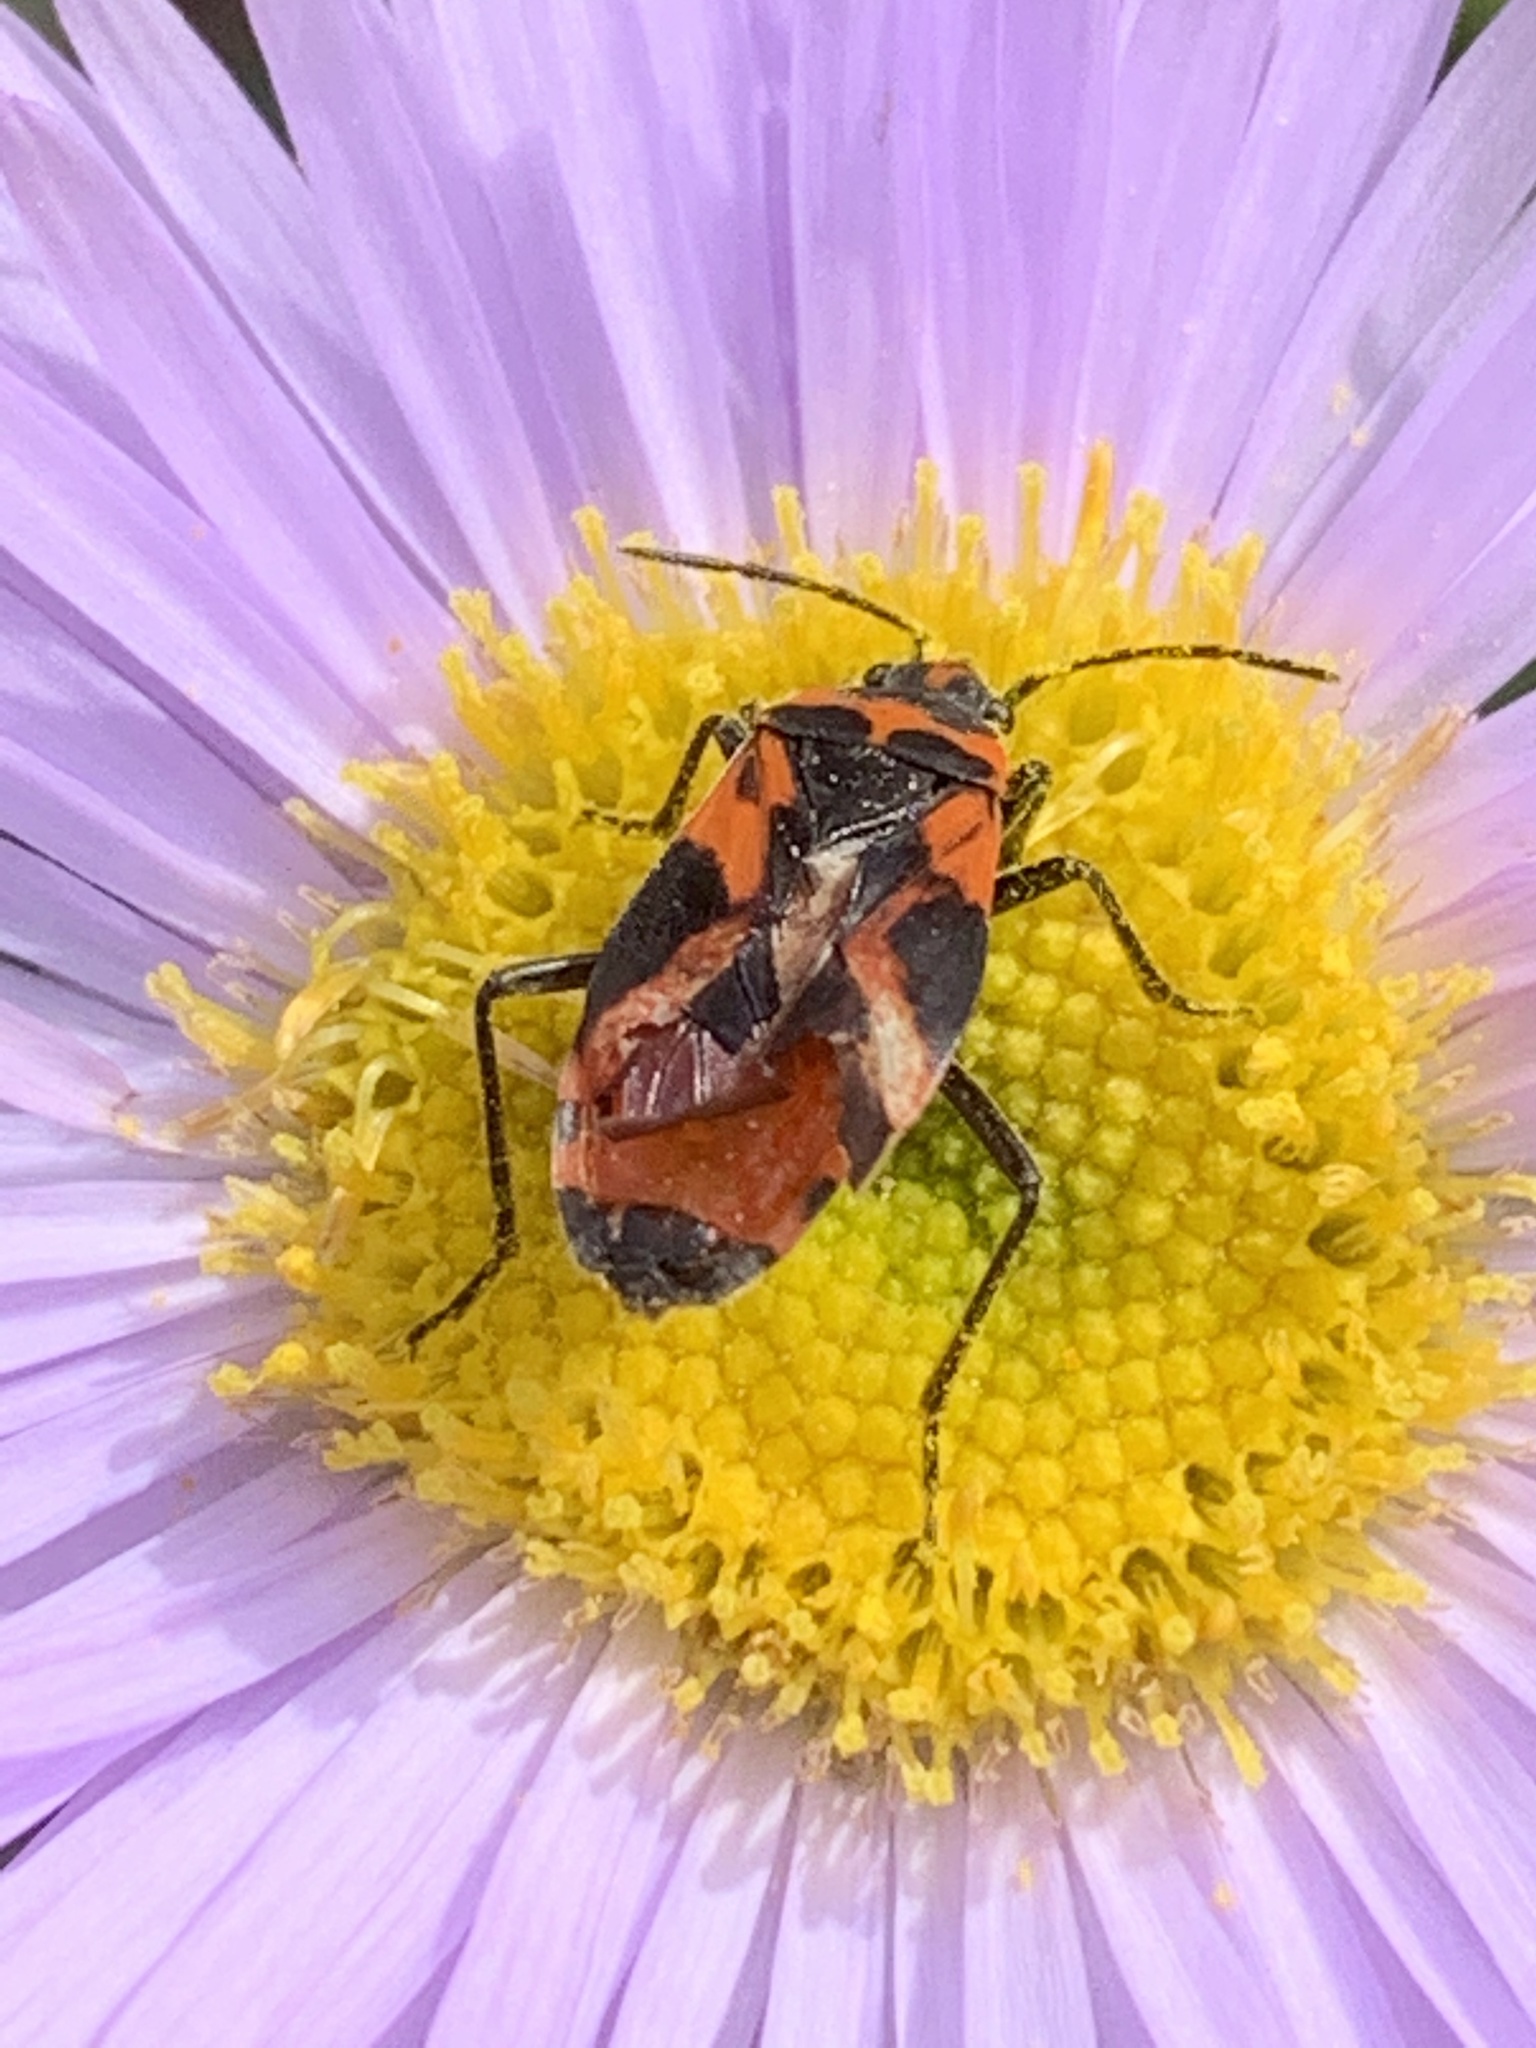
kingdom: Animalia
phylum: Arthropoda
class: Insecta
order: Hemiptera
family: Lygaeidae
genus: Lygaeus
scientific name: Lygaeus turcicus
